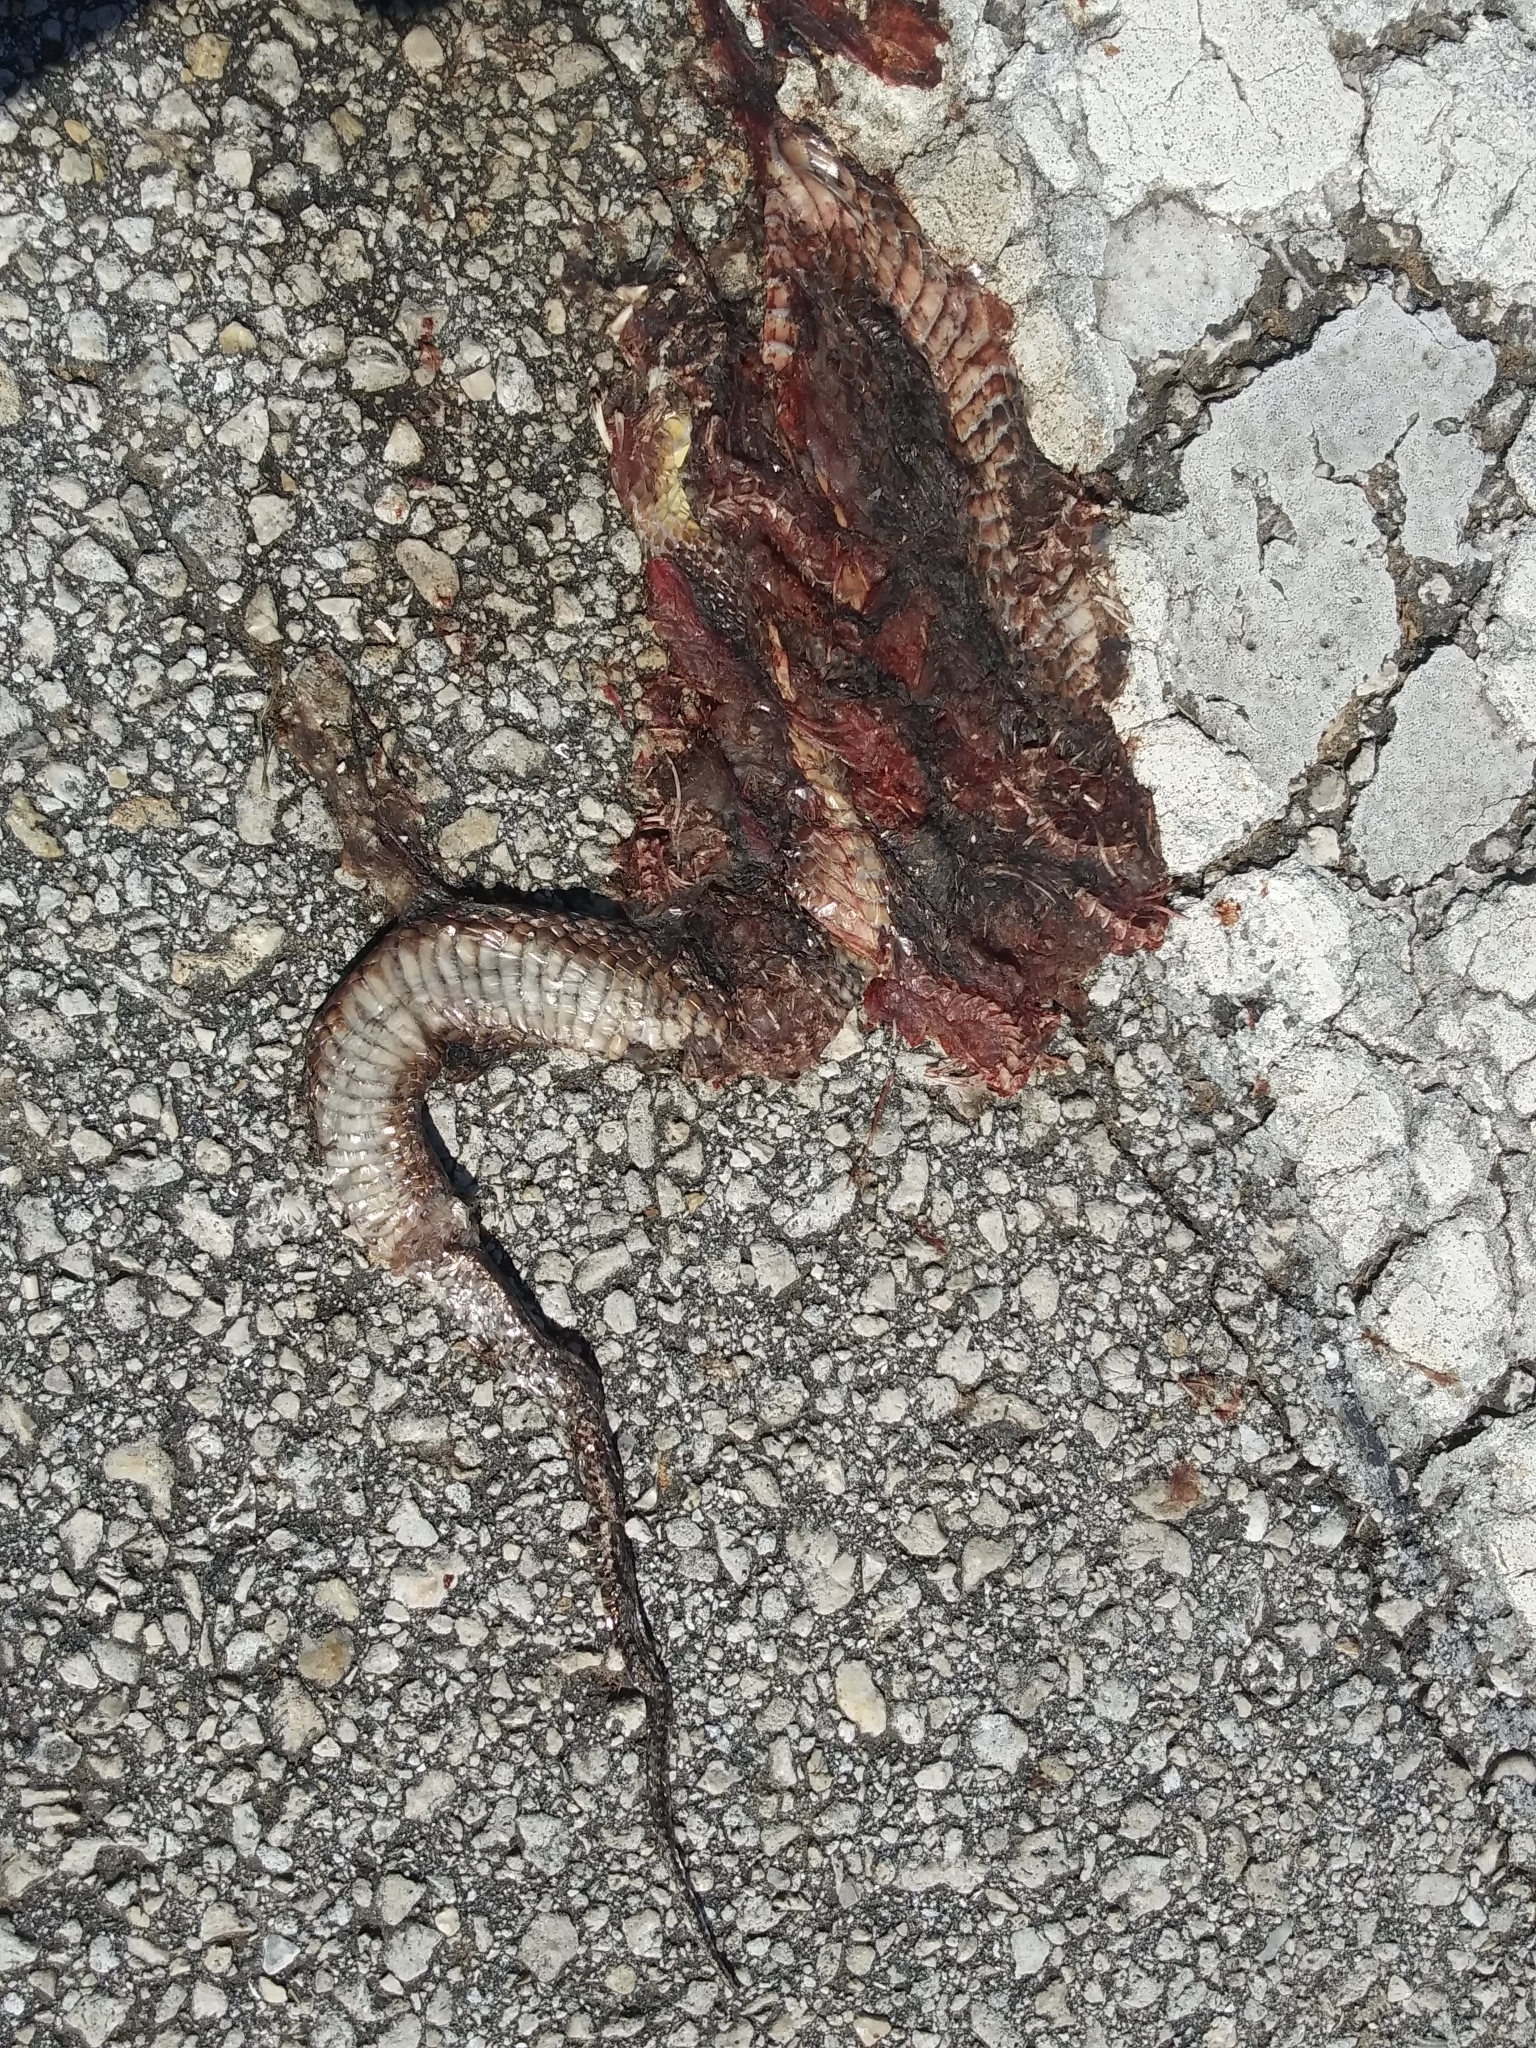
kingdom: Animalia
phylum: Chordata
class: Squamata
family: Colubridae
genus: Nerodia
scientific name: Nerodia floridana
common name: Florida green watersnake
